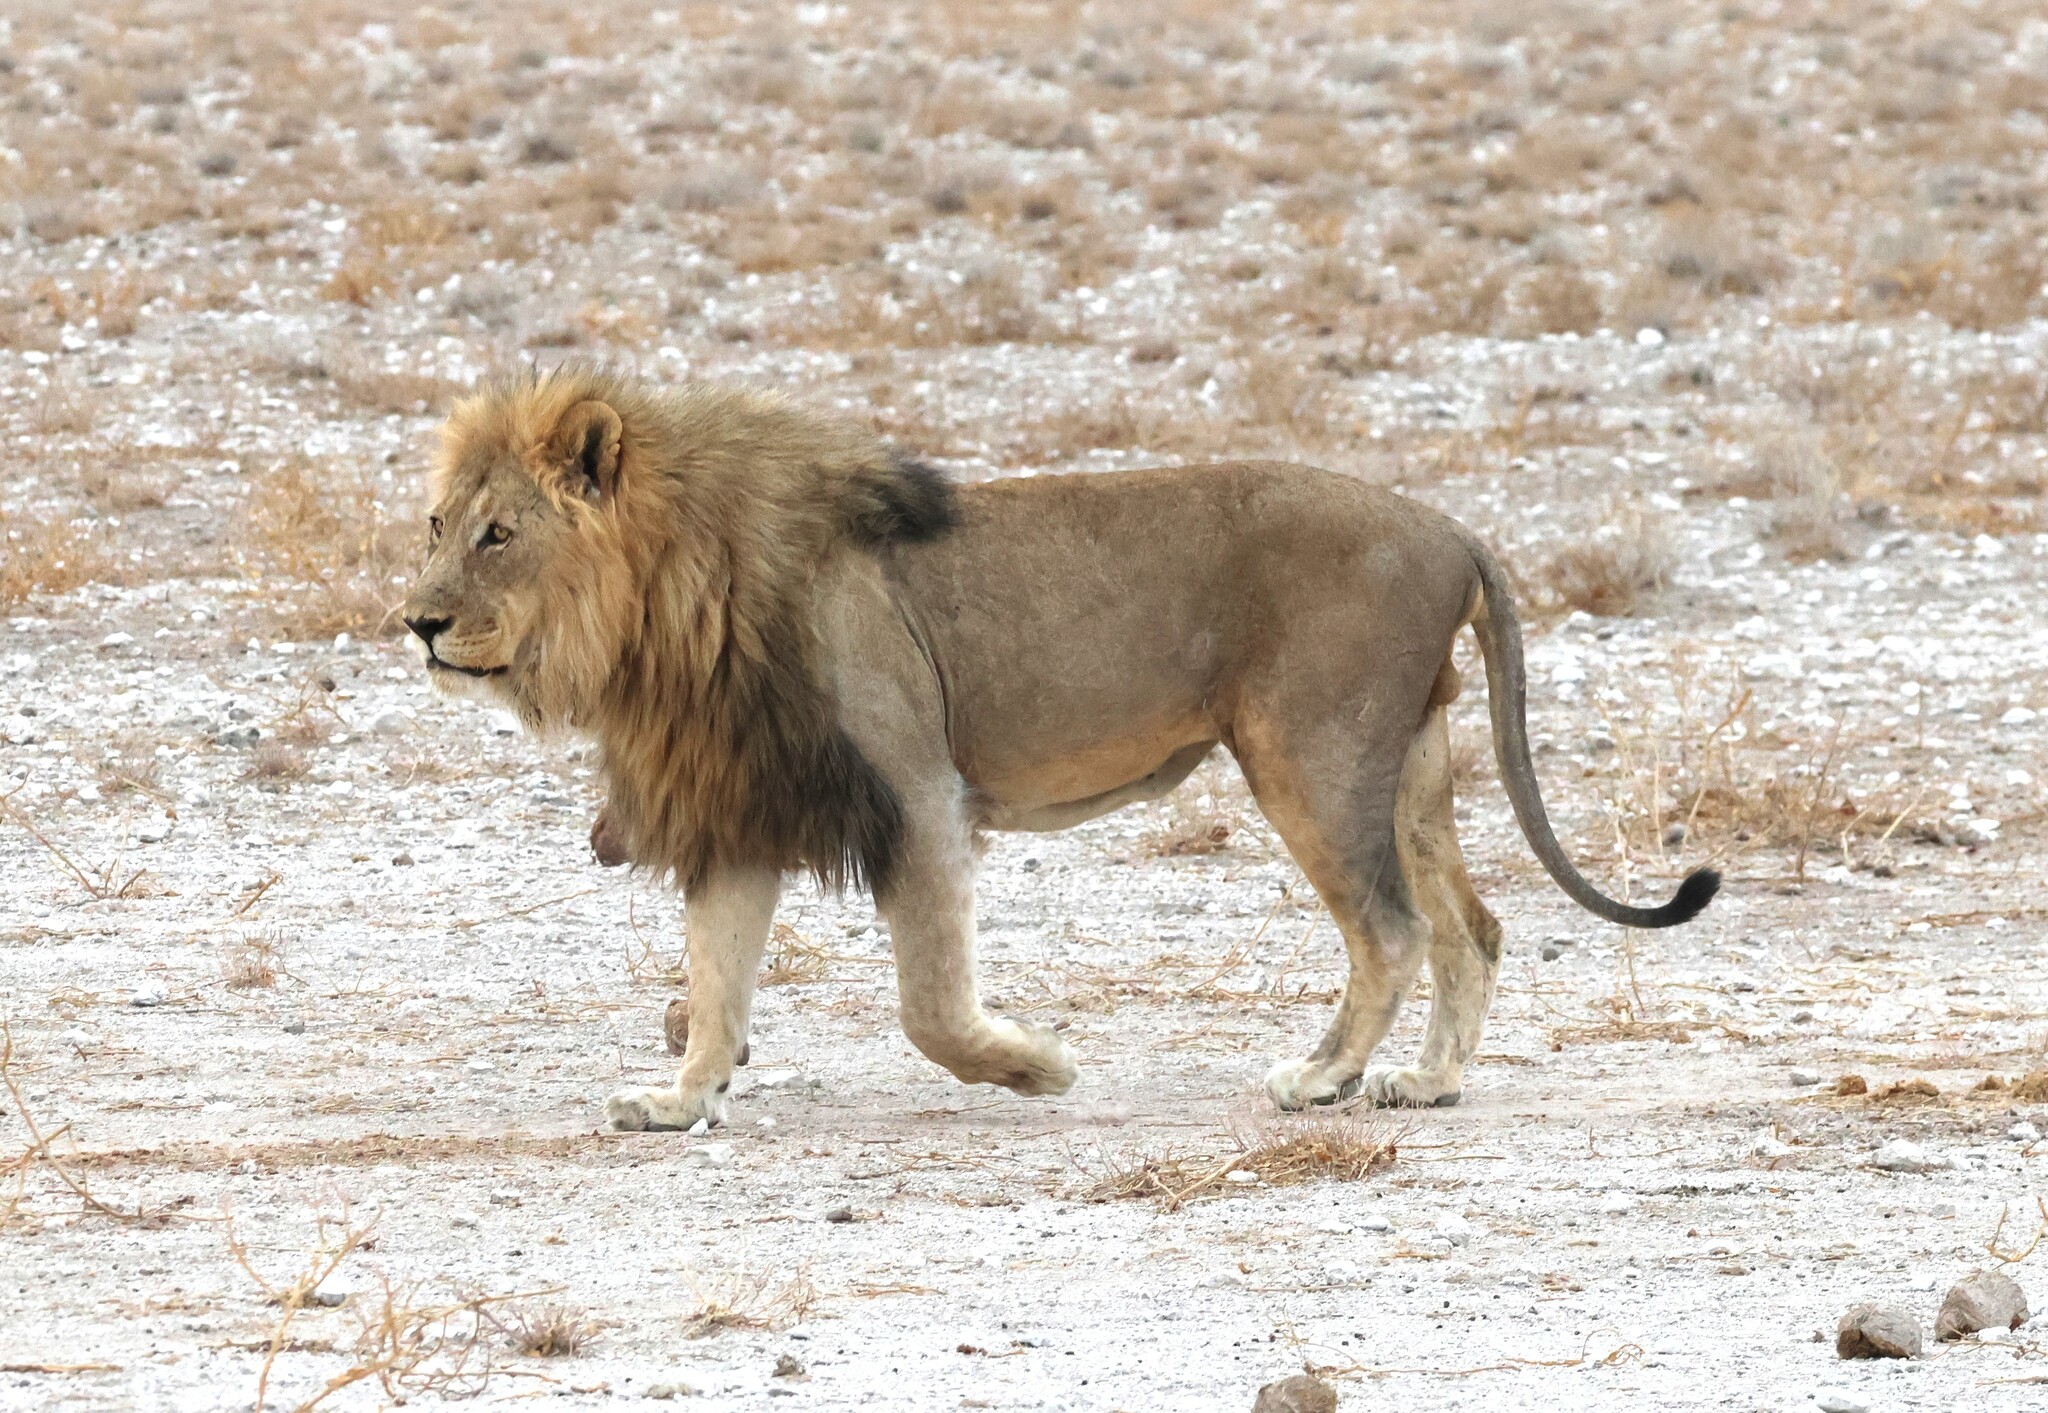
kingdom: Animalia
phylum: Chordata
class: Mammalia
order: Carnivora
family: Felidae
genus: Panthera
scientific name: Panthera leo
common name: Lion
